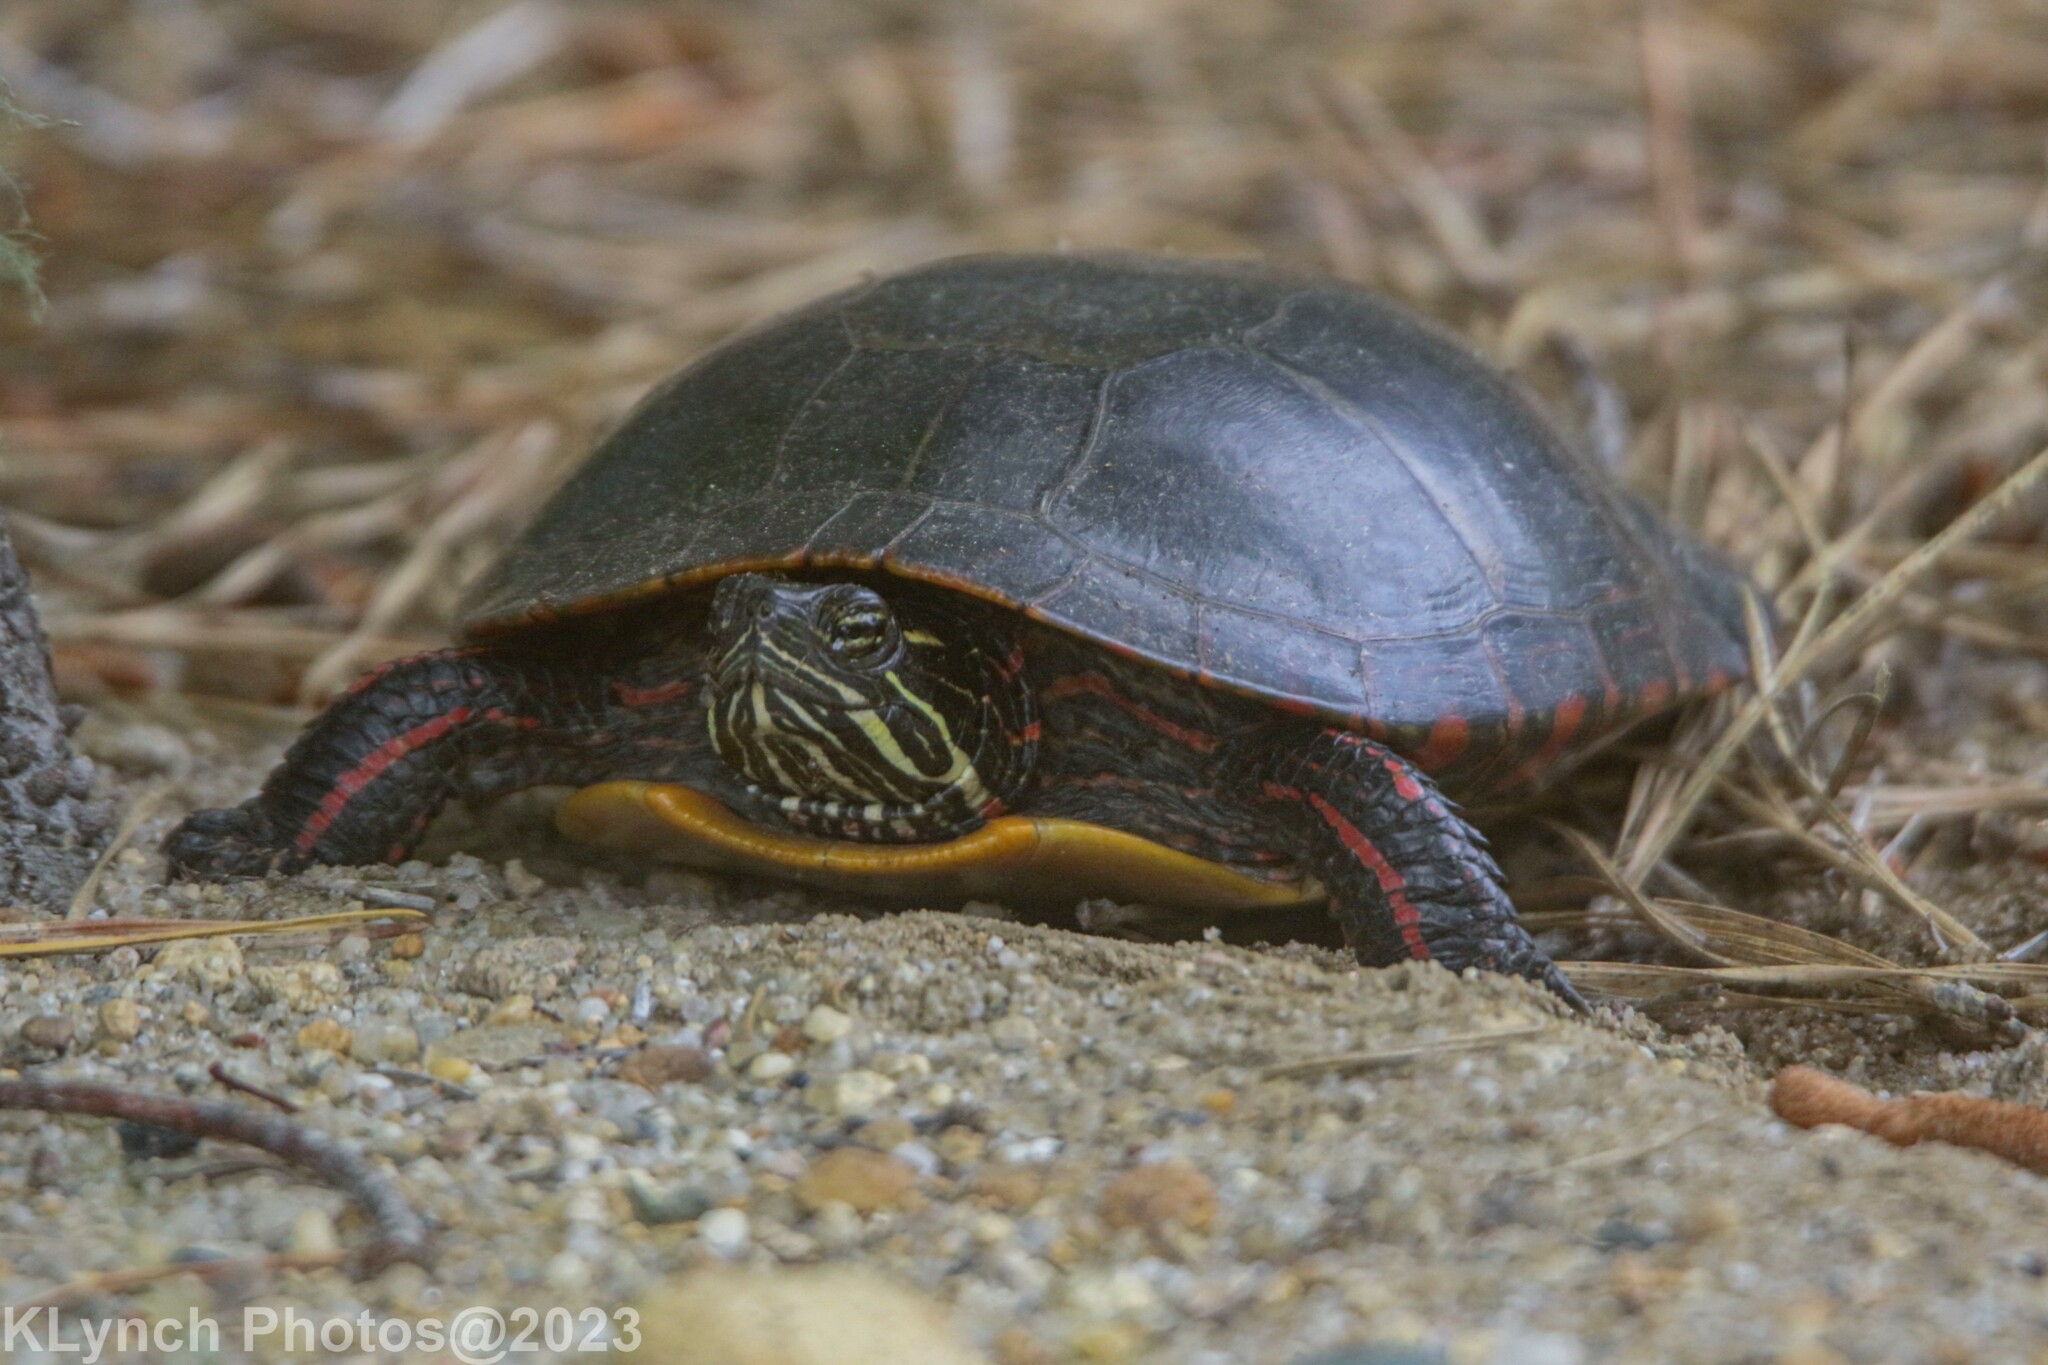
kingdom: Animalia
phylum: Chordata
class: Testudines
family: Emydidae
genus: Chrysemys
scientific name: Chrysemys picta
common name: Painted turtle
